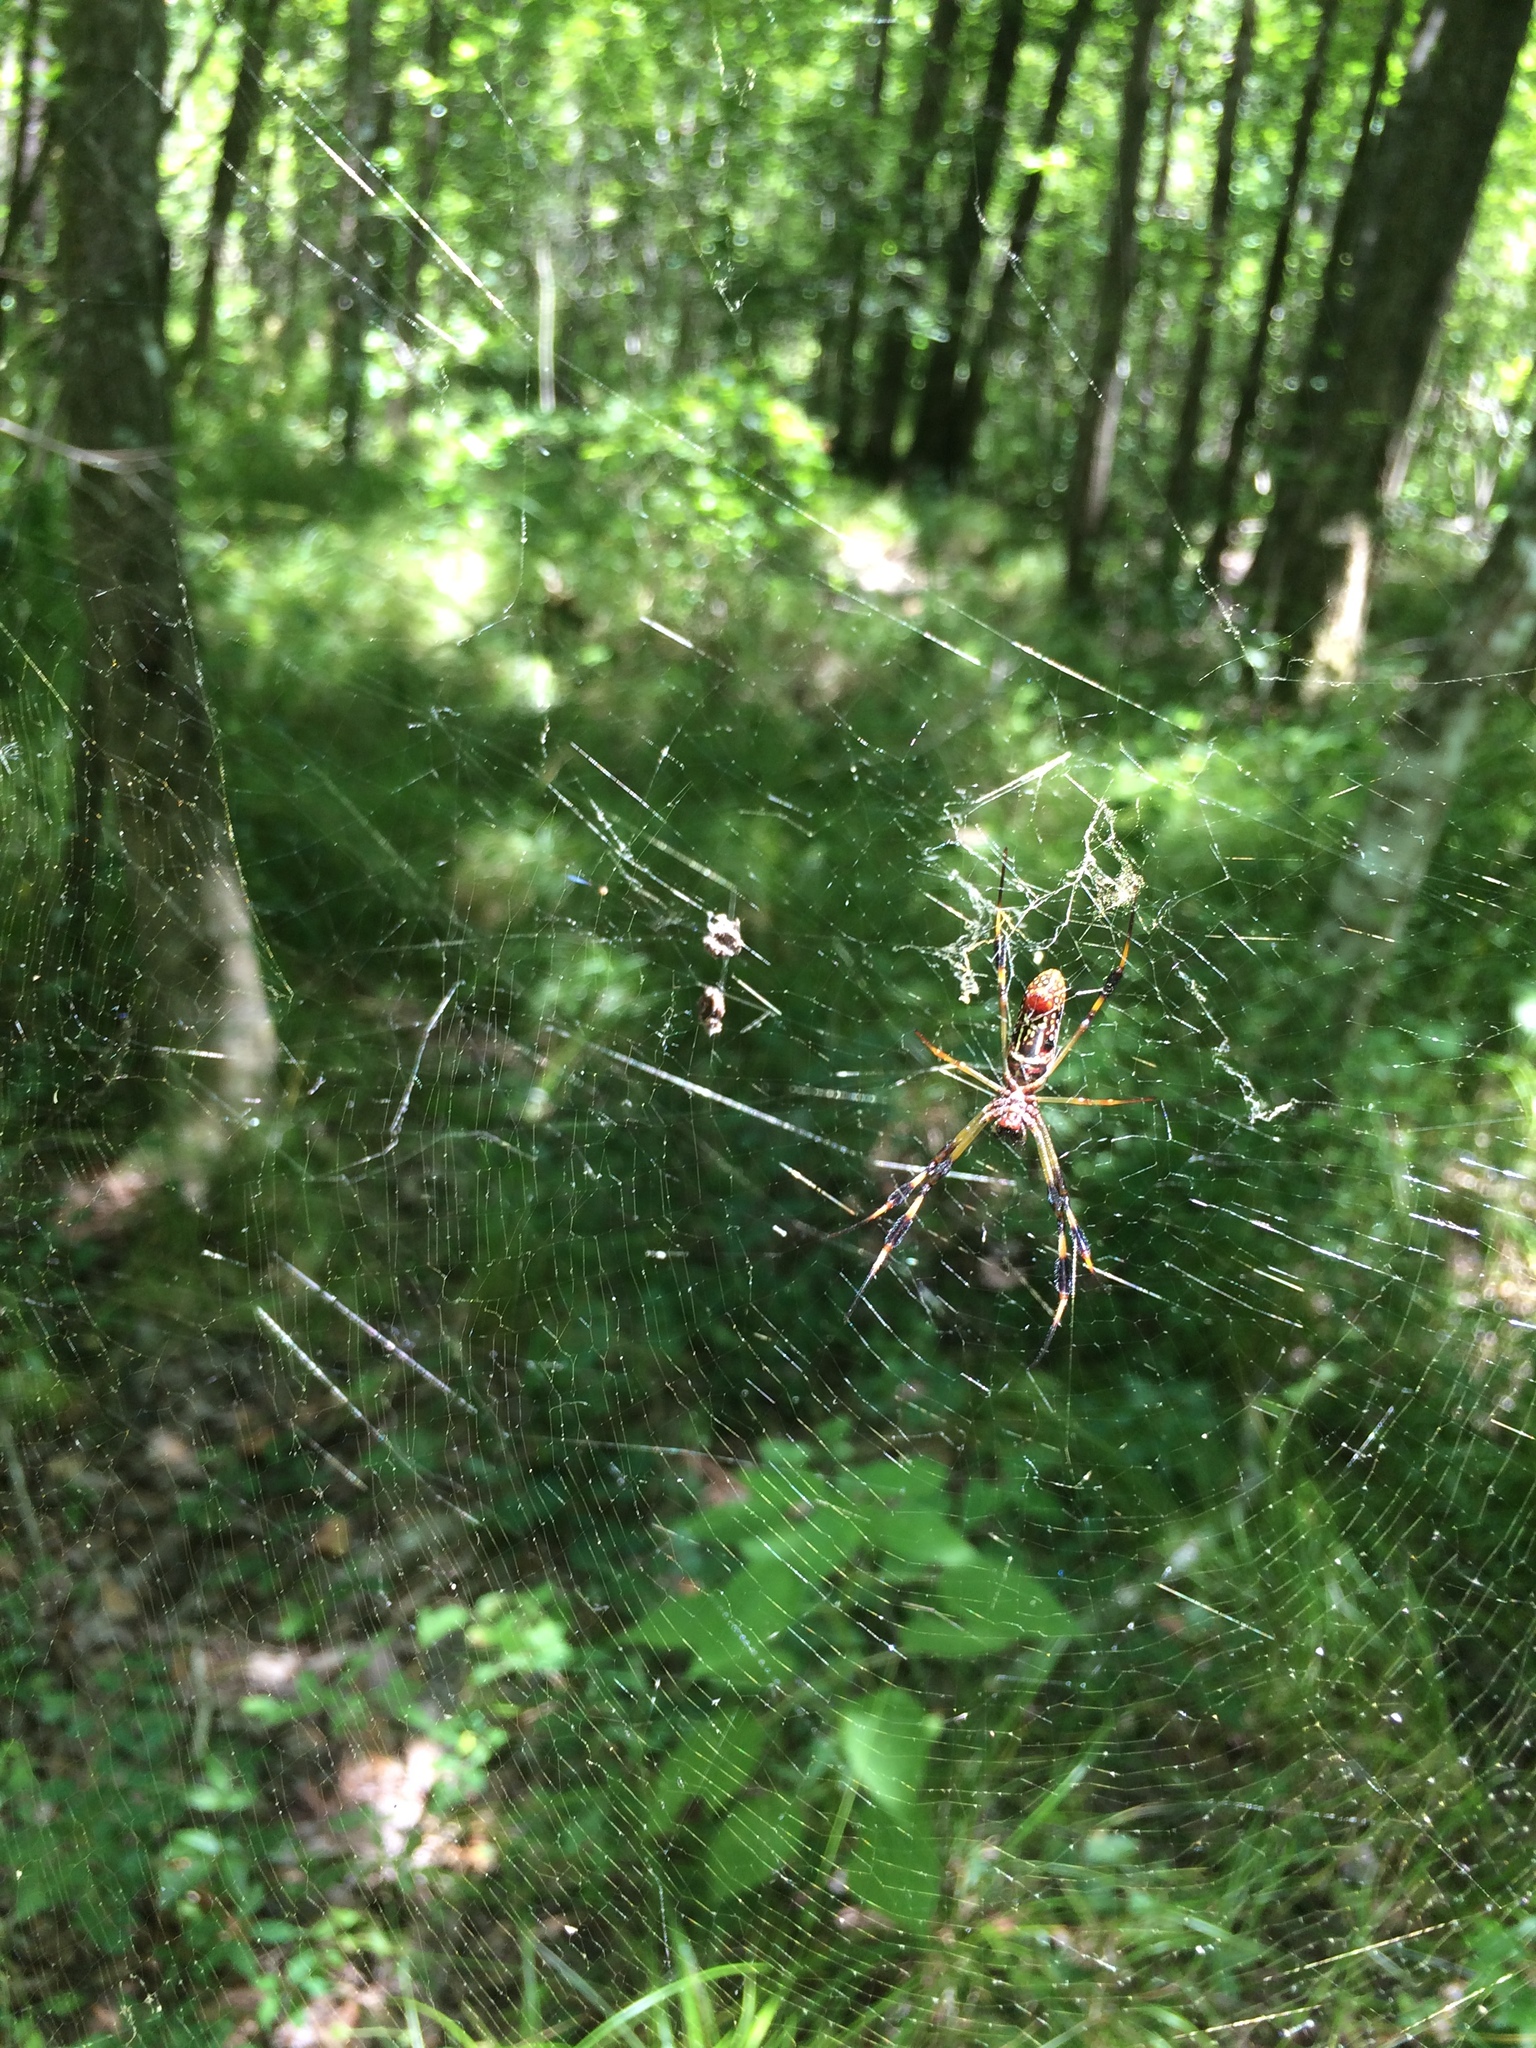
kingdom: Animalia
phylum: Arthropoda
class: Arachnida
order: Araneae
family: Araneidae
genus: Trichonephila
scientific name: Trichonephila clavipes
